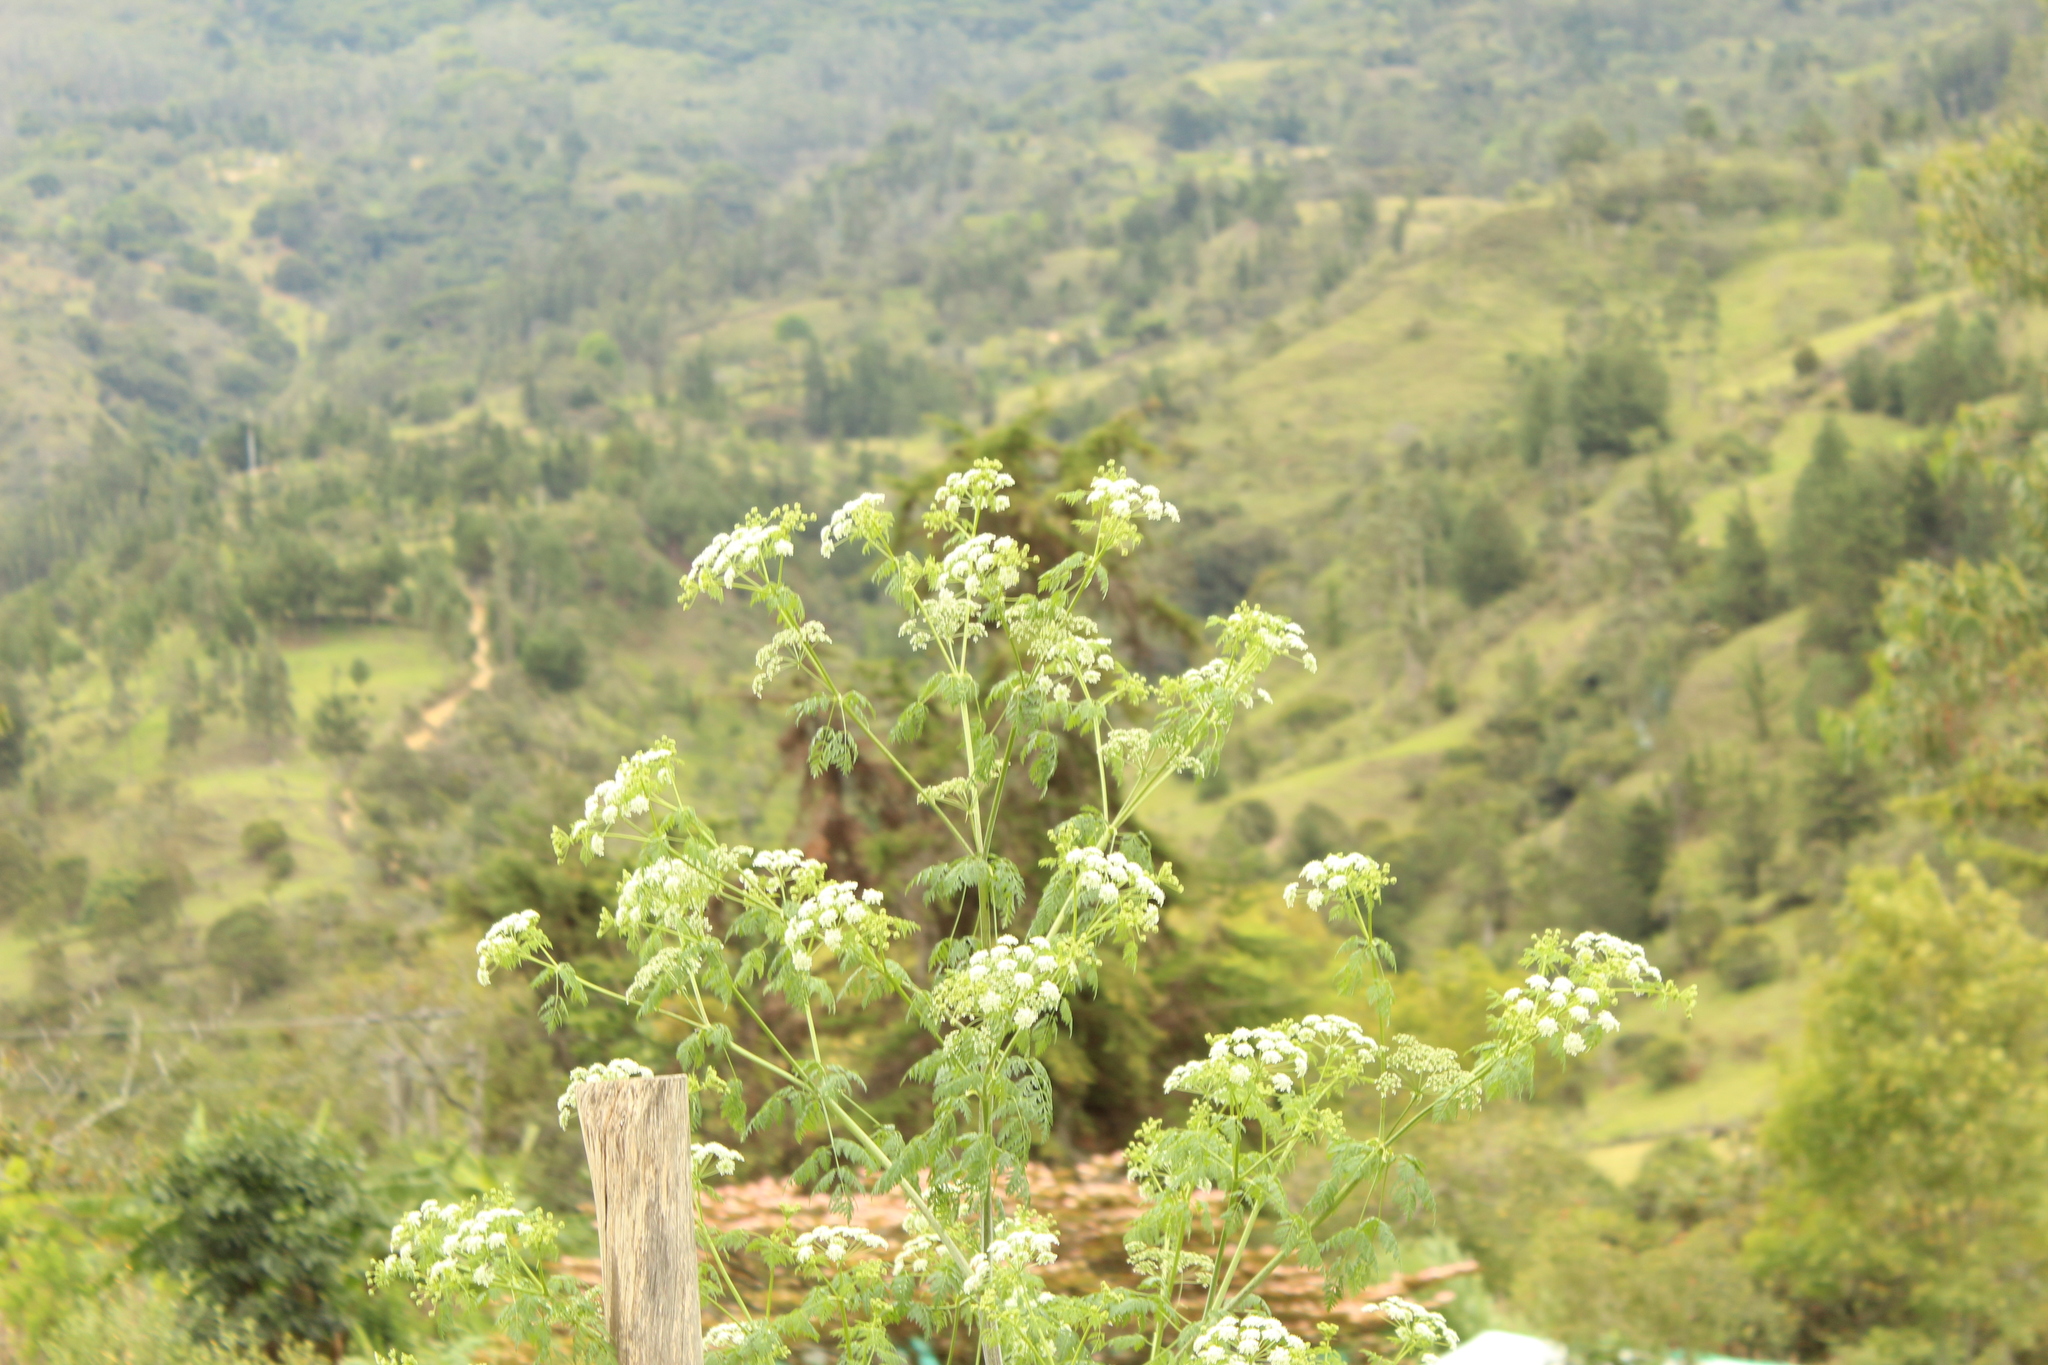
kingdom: Plantae
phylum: Tracheophyta
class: Magnoliopsida
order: Apiales
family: Apiaceae
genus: Conium
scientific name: Conium maculatum
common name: Hemlock
